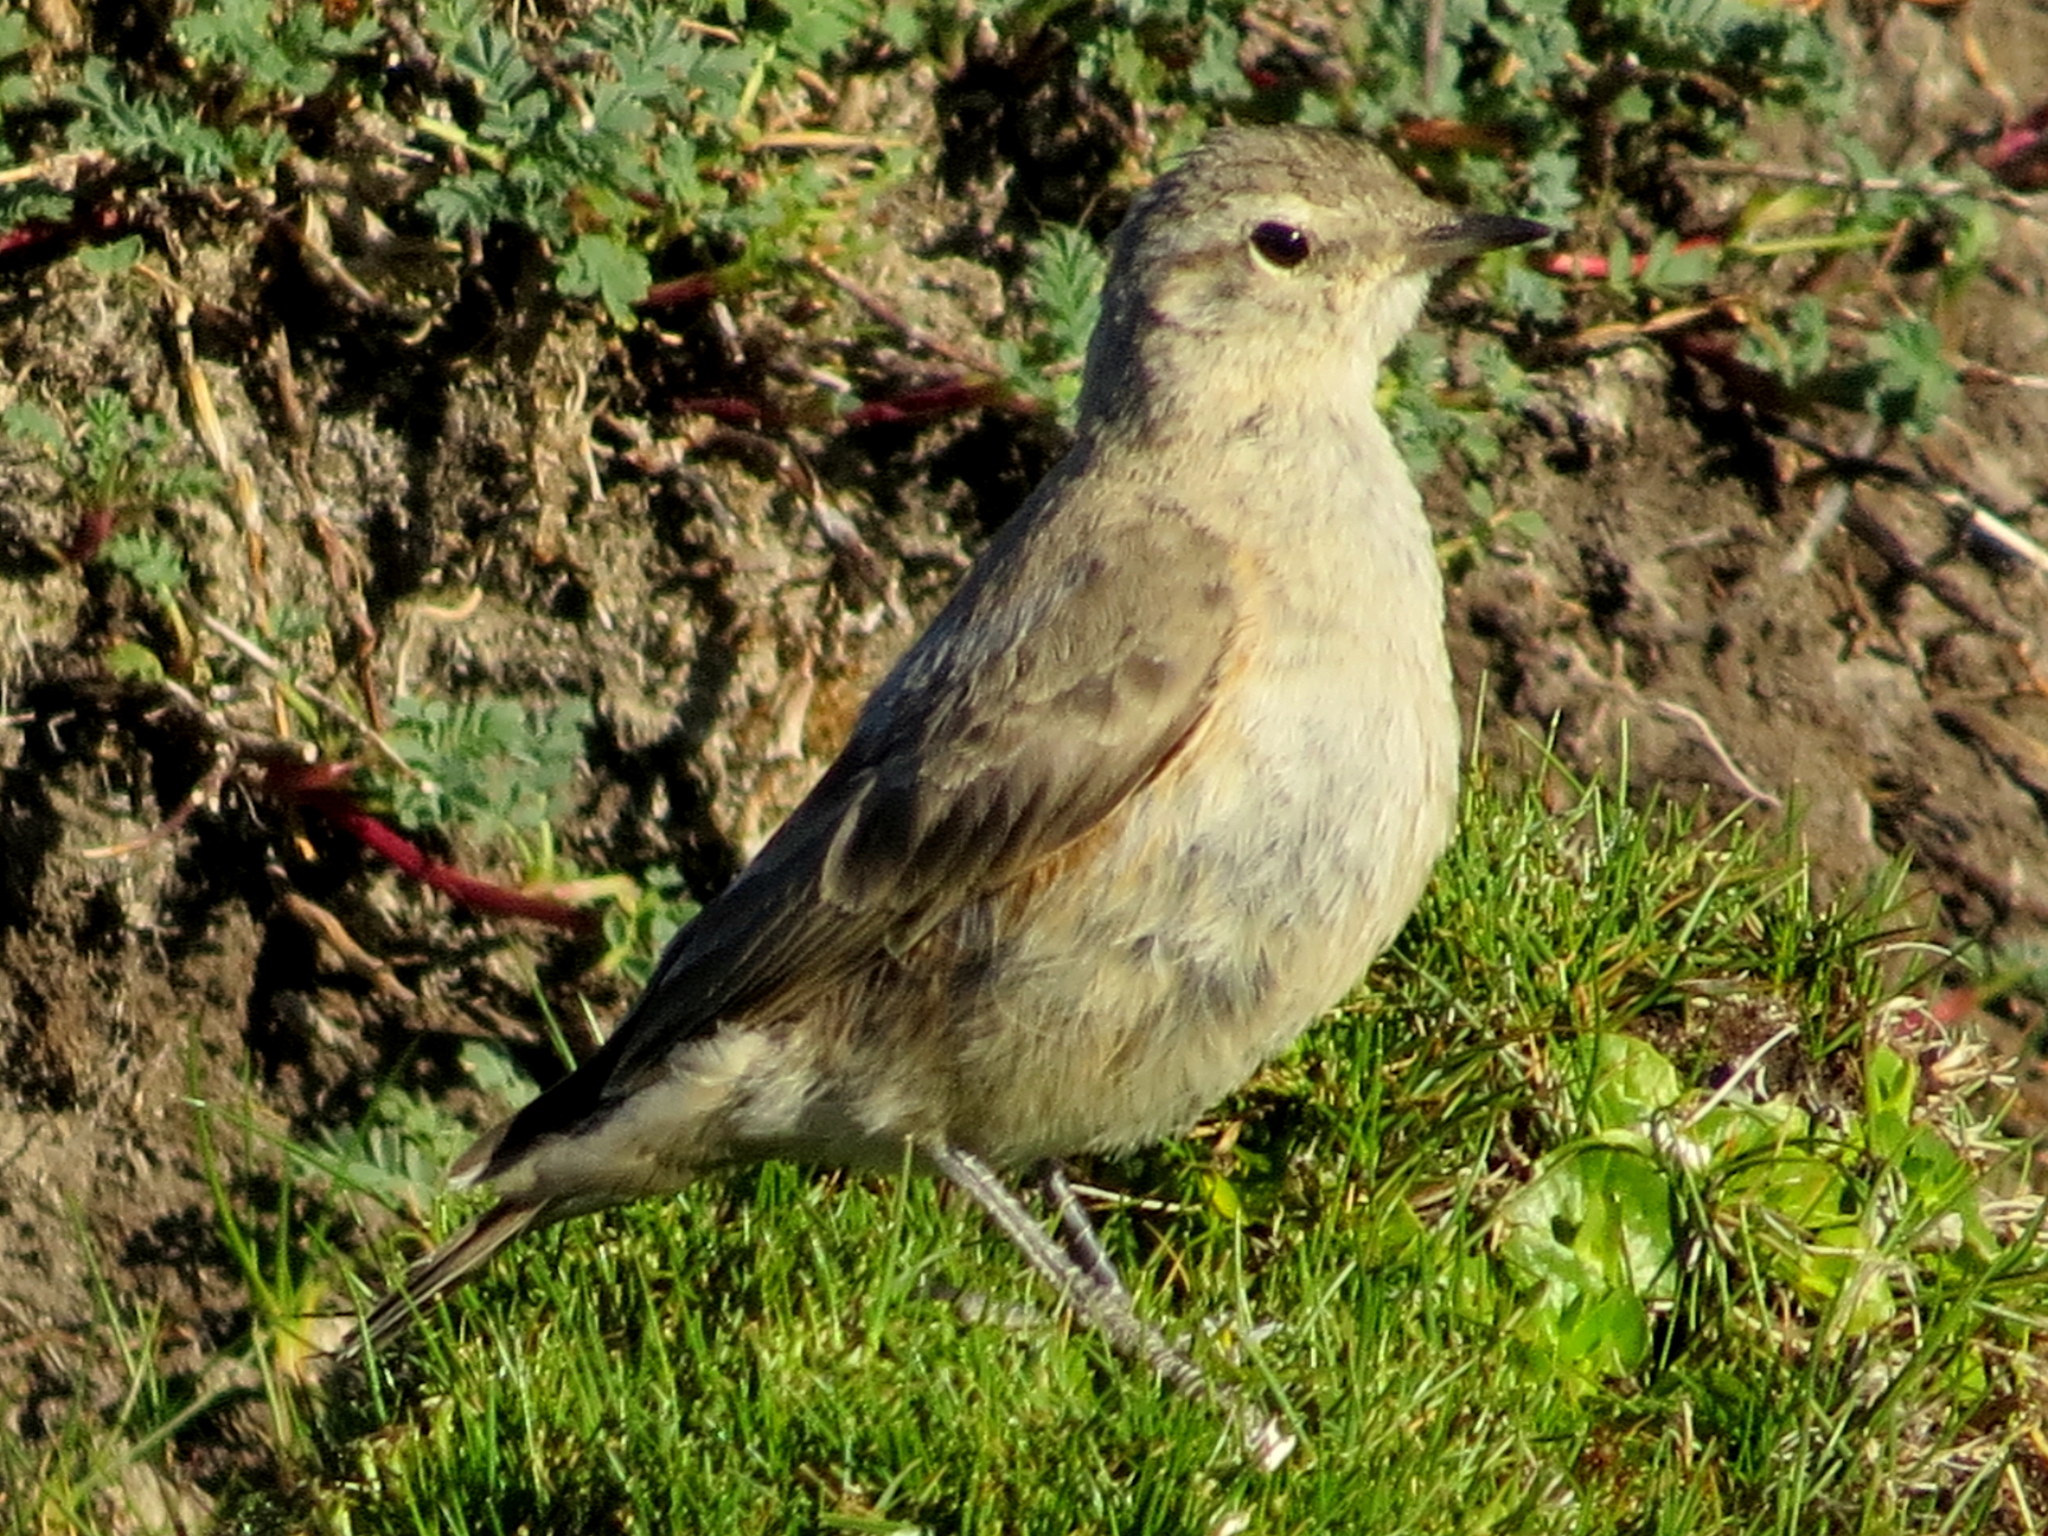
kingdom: Animalia
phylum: Chordata
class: Aves
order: Passeriformes
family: Furnariidae
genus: Geositta
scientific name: Geositta rufipennis
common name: Rufous-banded miner
